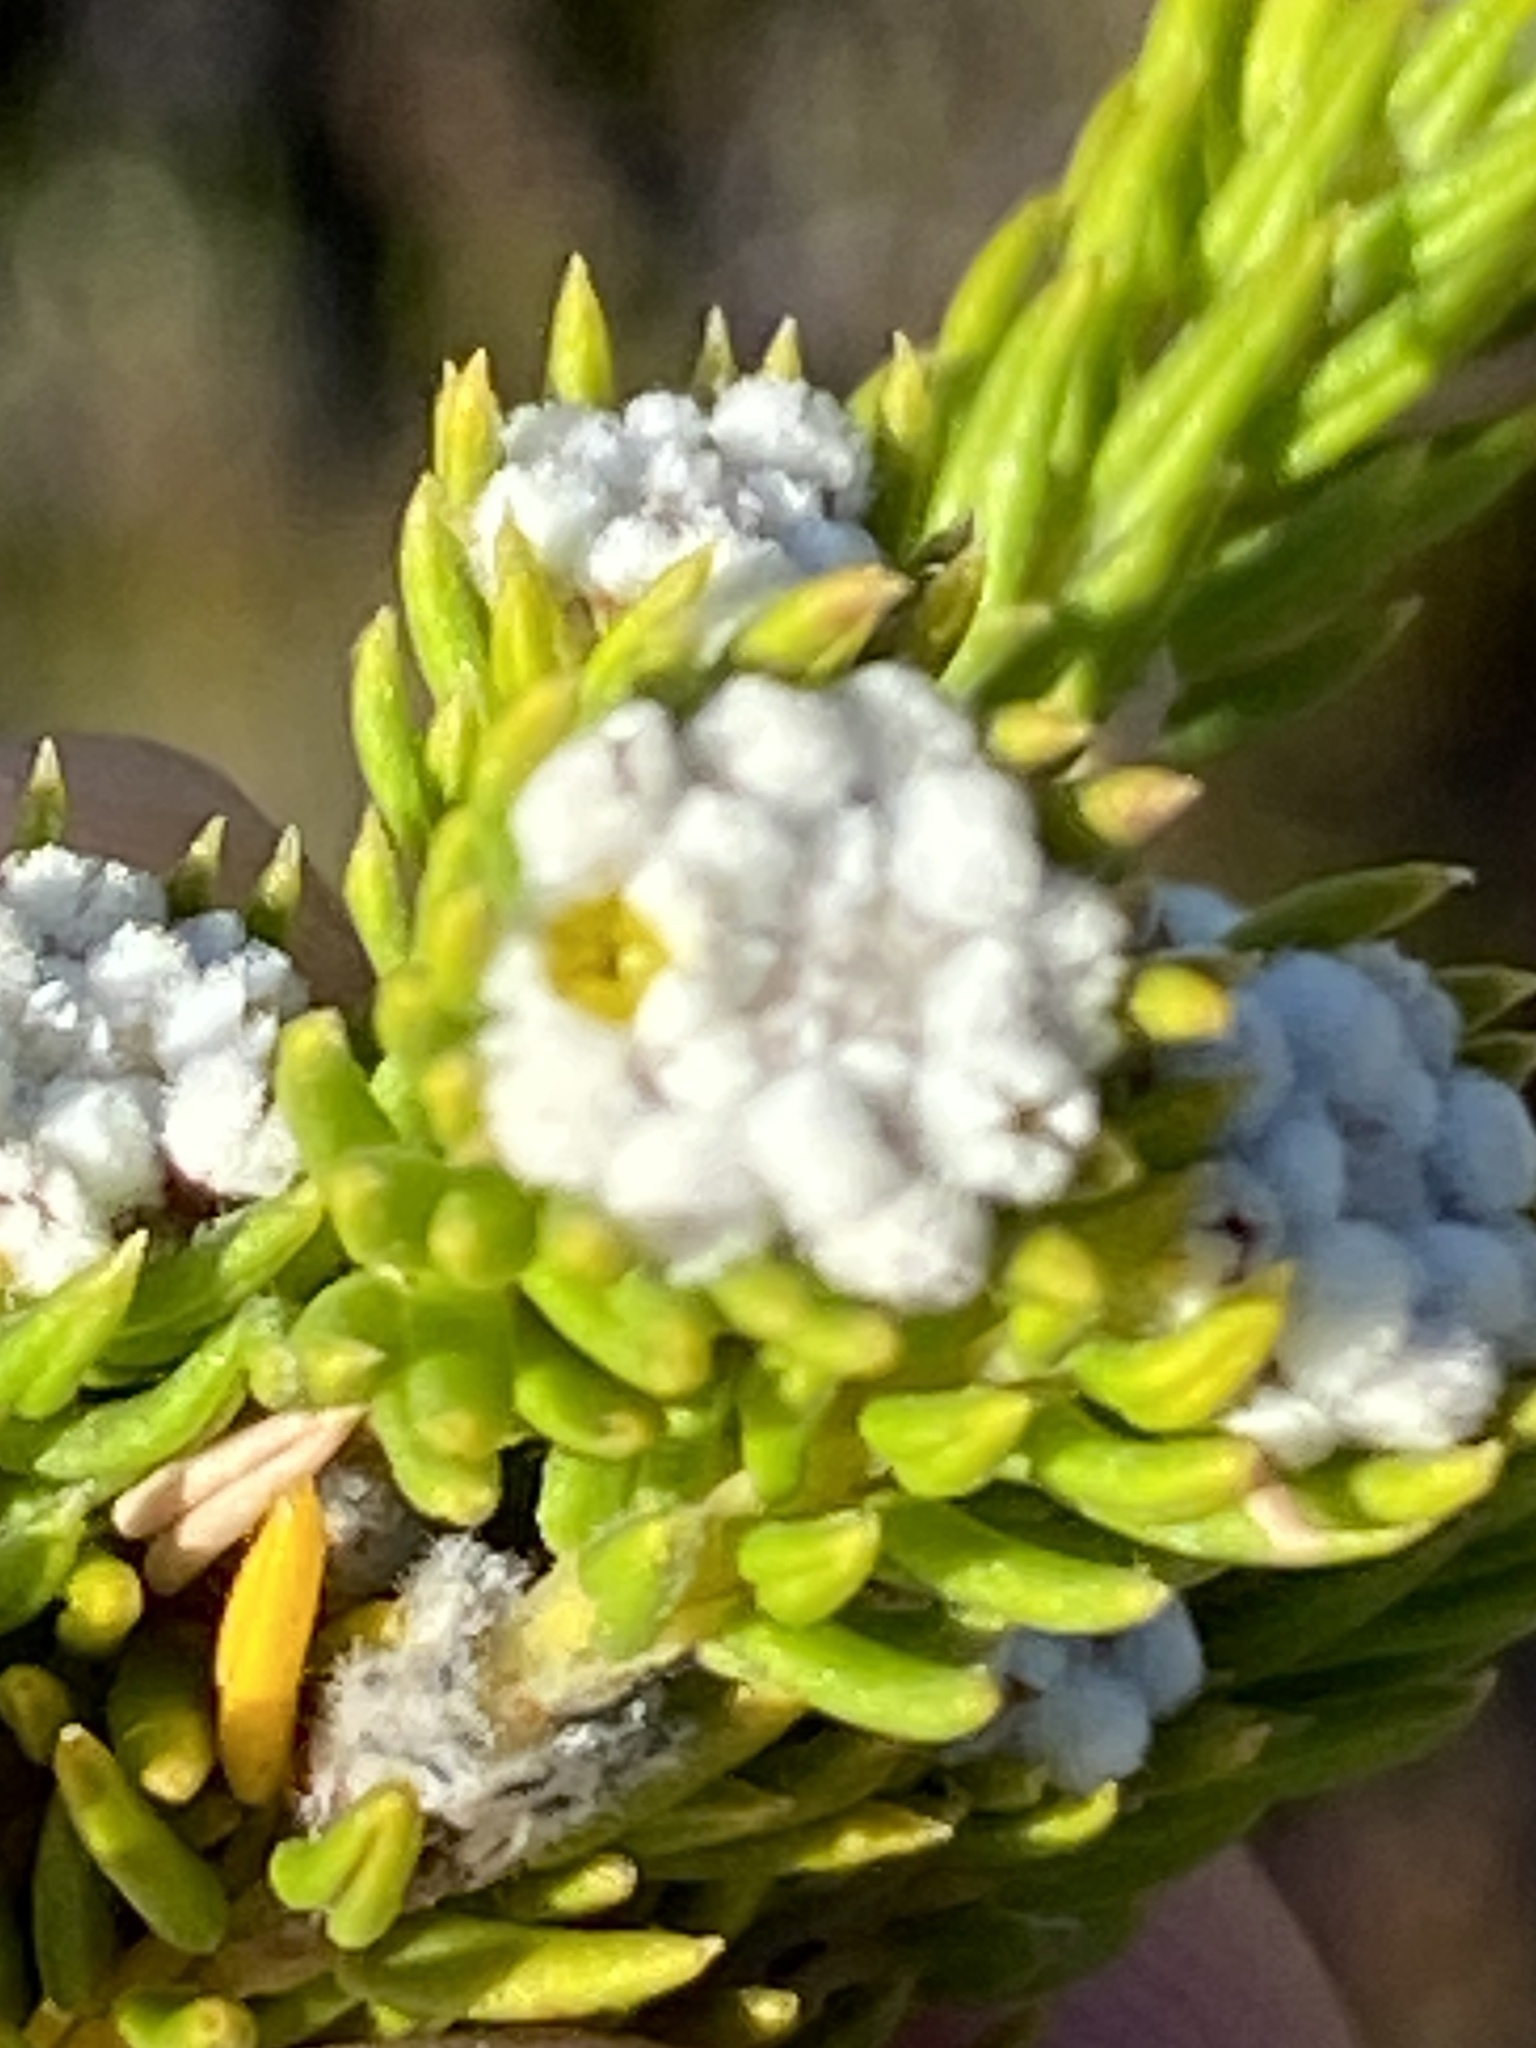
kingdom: Plantae
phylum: Tracheophyta
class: Magnoliopsida
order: Rosales
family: Rhamnaceae
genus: Phylica
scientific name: Phylica ericoides
